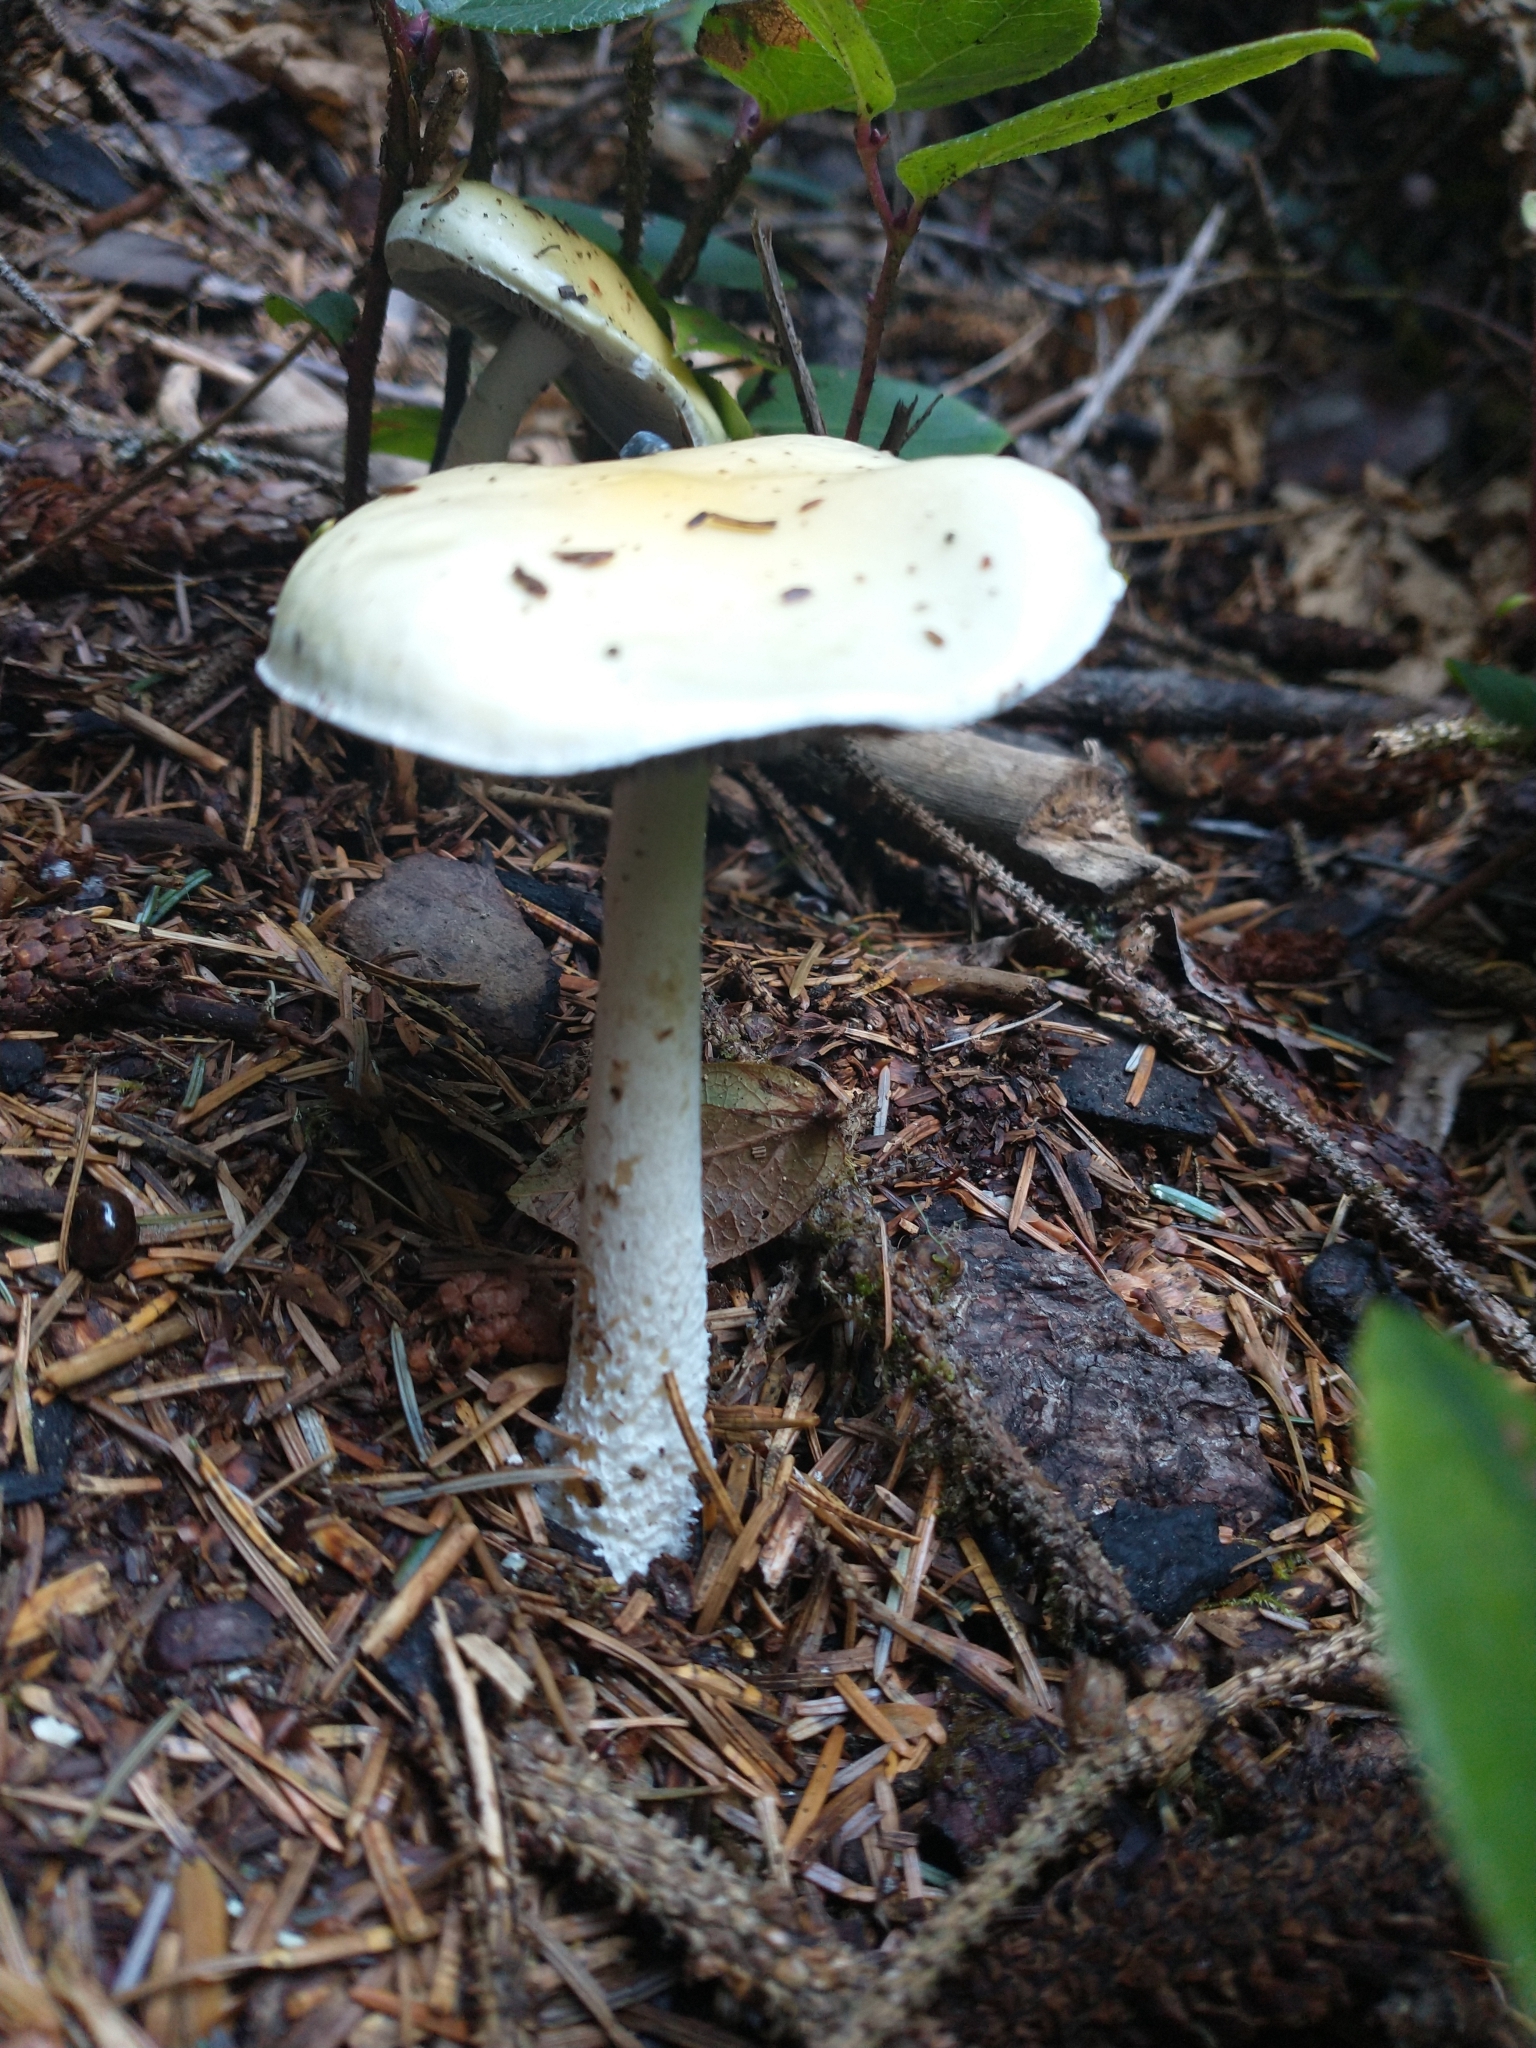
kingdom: Fungi
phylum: Basidiomycota
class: Agaricomycetes
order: Agaricales
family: Strophariaceae
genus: Stropharia
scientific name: Stropharia ambigua
